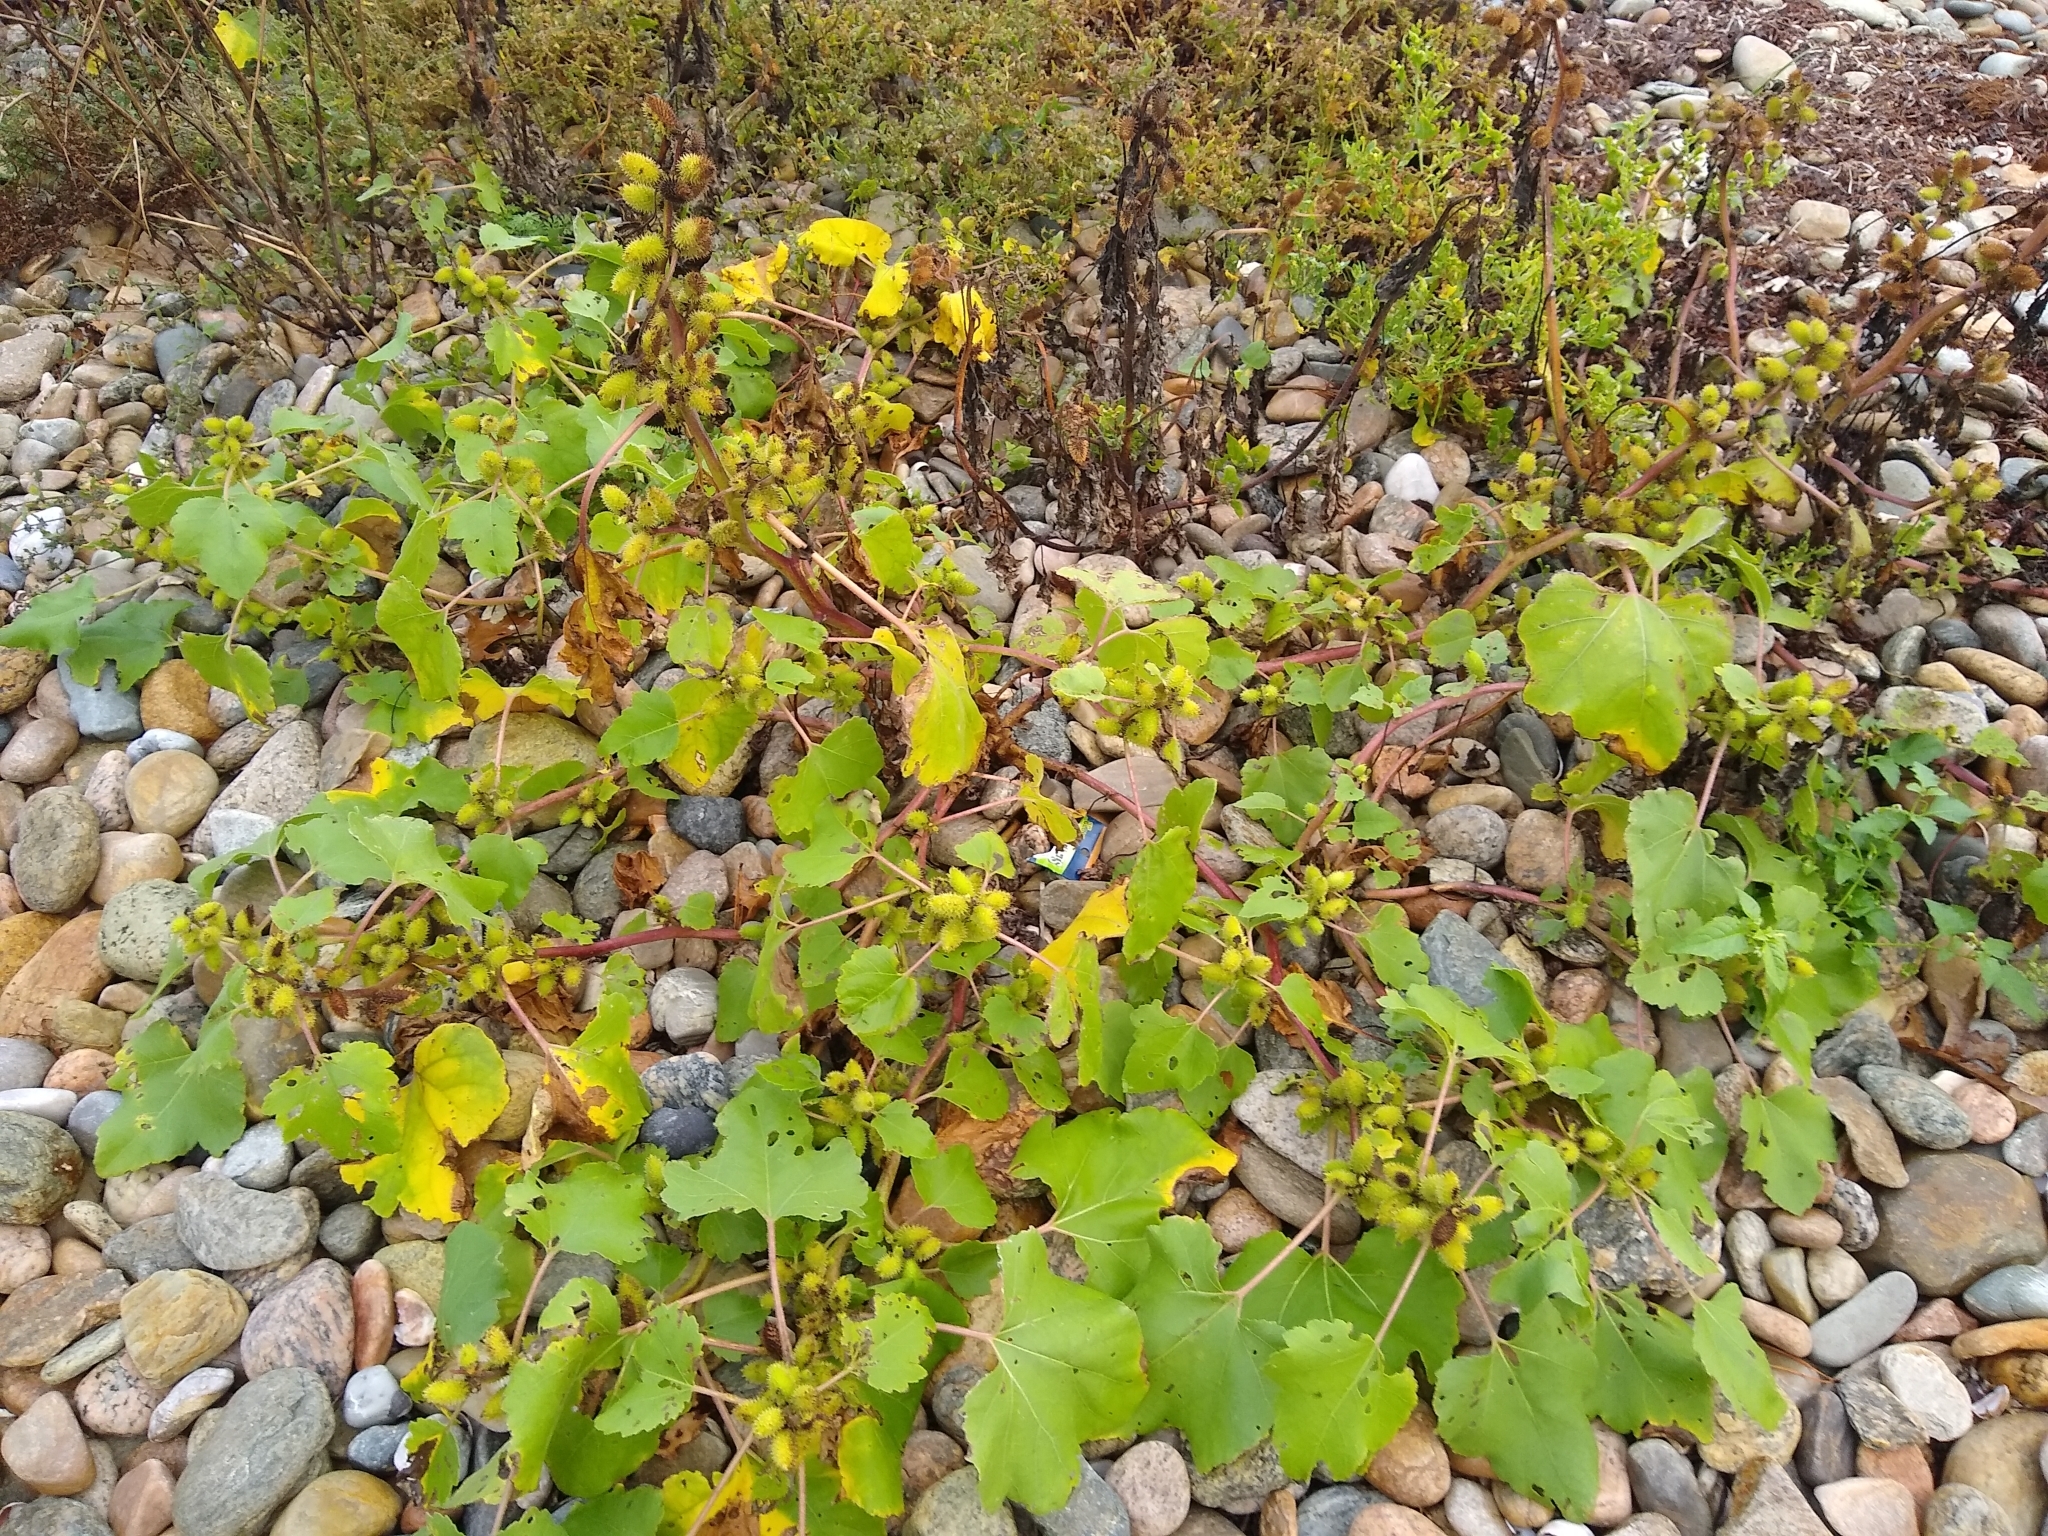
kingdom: Plantae
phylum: Tracheophyta
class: Magnoliopsida
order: Asterales
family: Asteraceae
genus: Xanthium
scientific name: Xanthium strumarium
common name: Rough cocklebur
